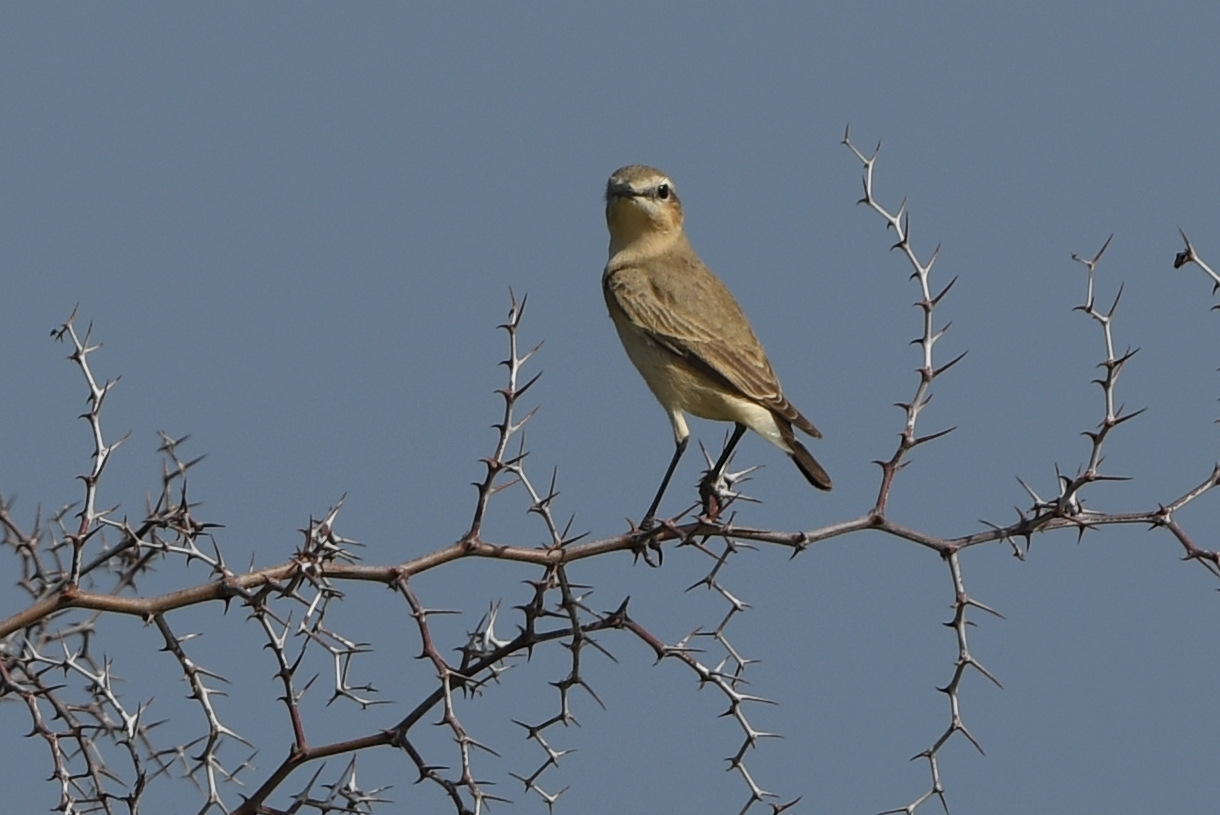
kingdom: Animalia
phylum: Chordata
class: Aves
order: Passeriformes
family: Muscicapidae
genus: Oenanthe
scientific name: Oenanthe isabellina
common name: Isabelline wheatear
